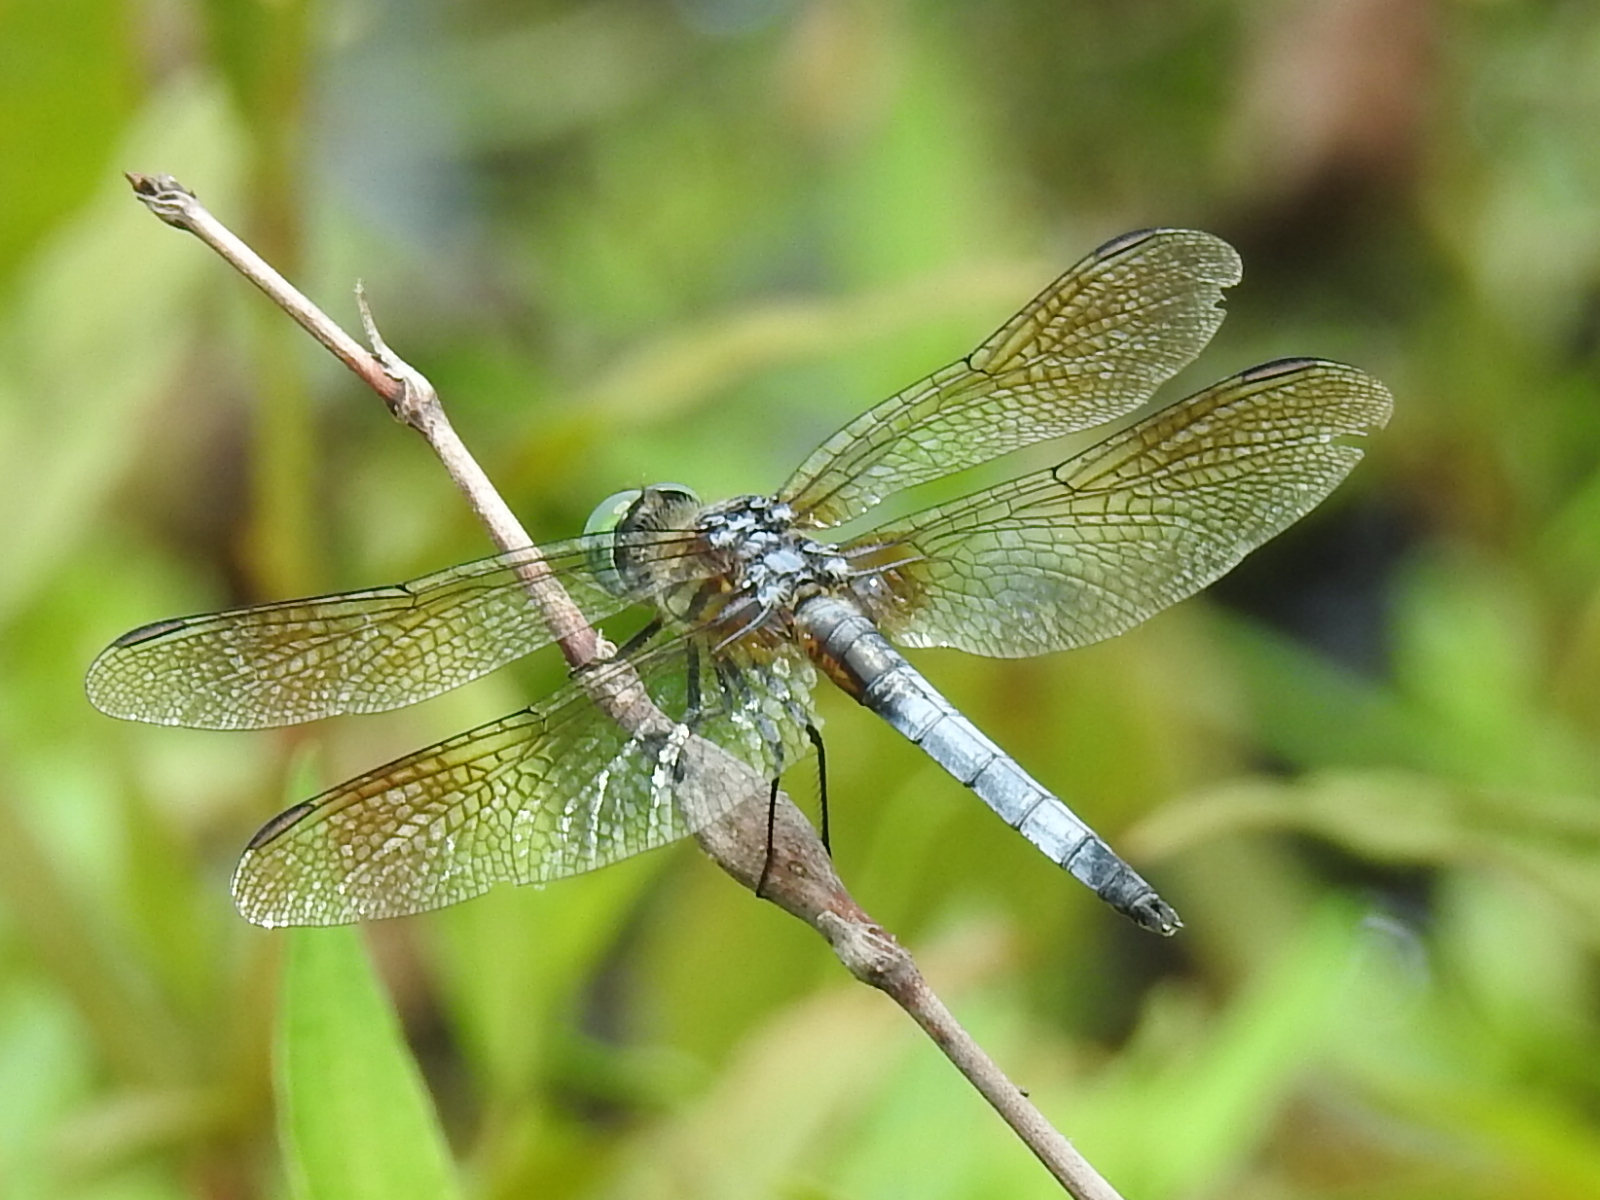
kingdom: Animalia
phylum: Arthropoda
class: Insecta
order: Odonata
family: Libellulidae
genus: Pachydiplax
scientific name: Pachydiplax longipennis
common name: Blue dasher
